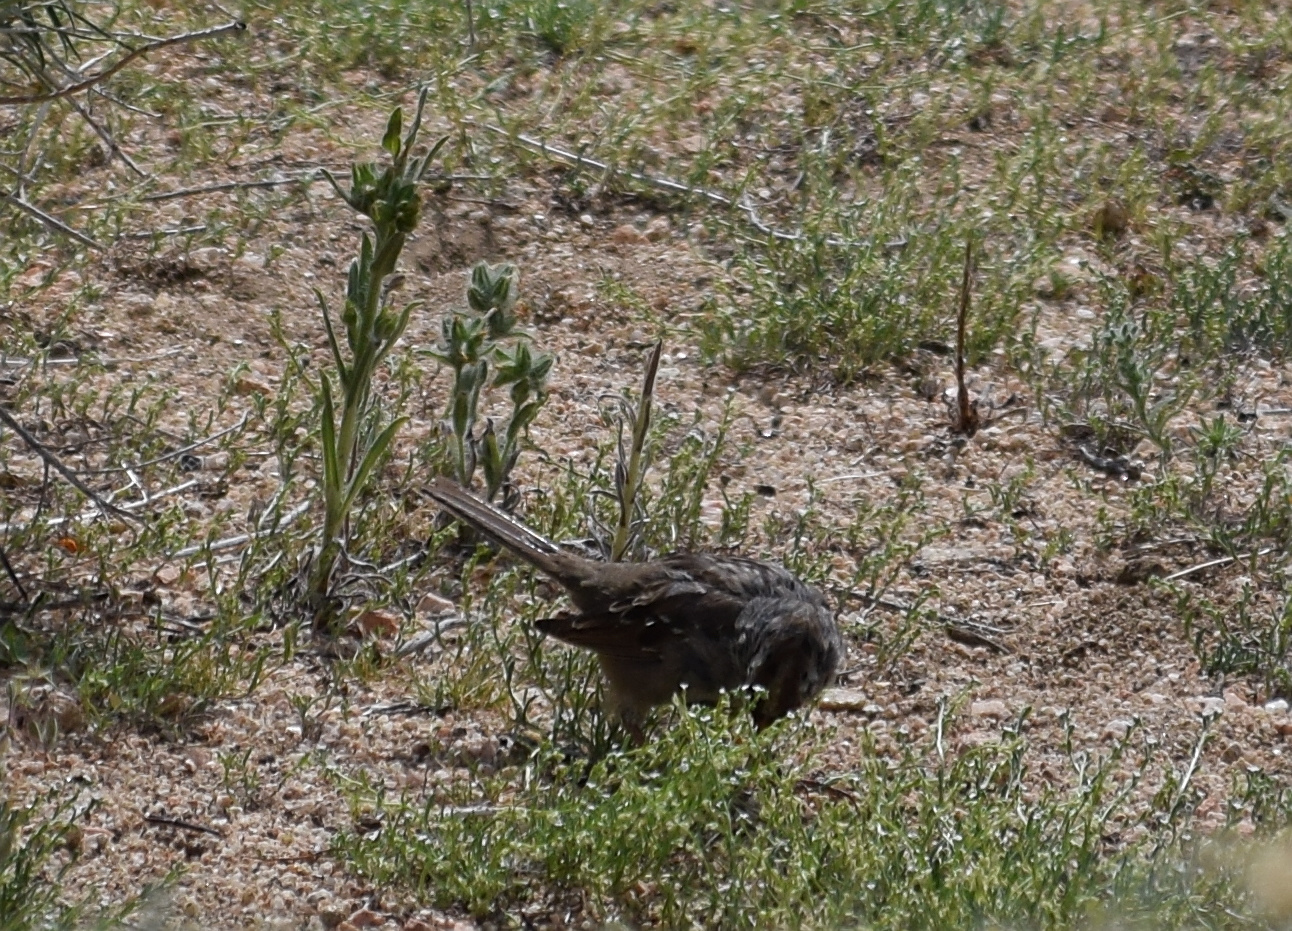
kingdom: Animalia
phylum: Chordata
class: Aves
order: Passeriformes
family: Passerellidae
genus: Zonotrichia
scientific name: Zonotrichia leucophrys
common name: White-crowned sparrow
